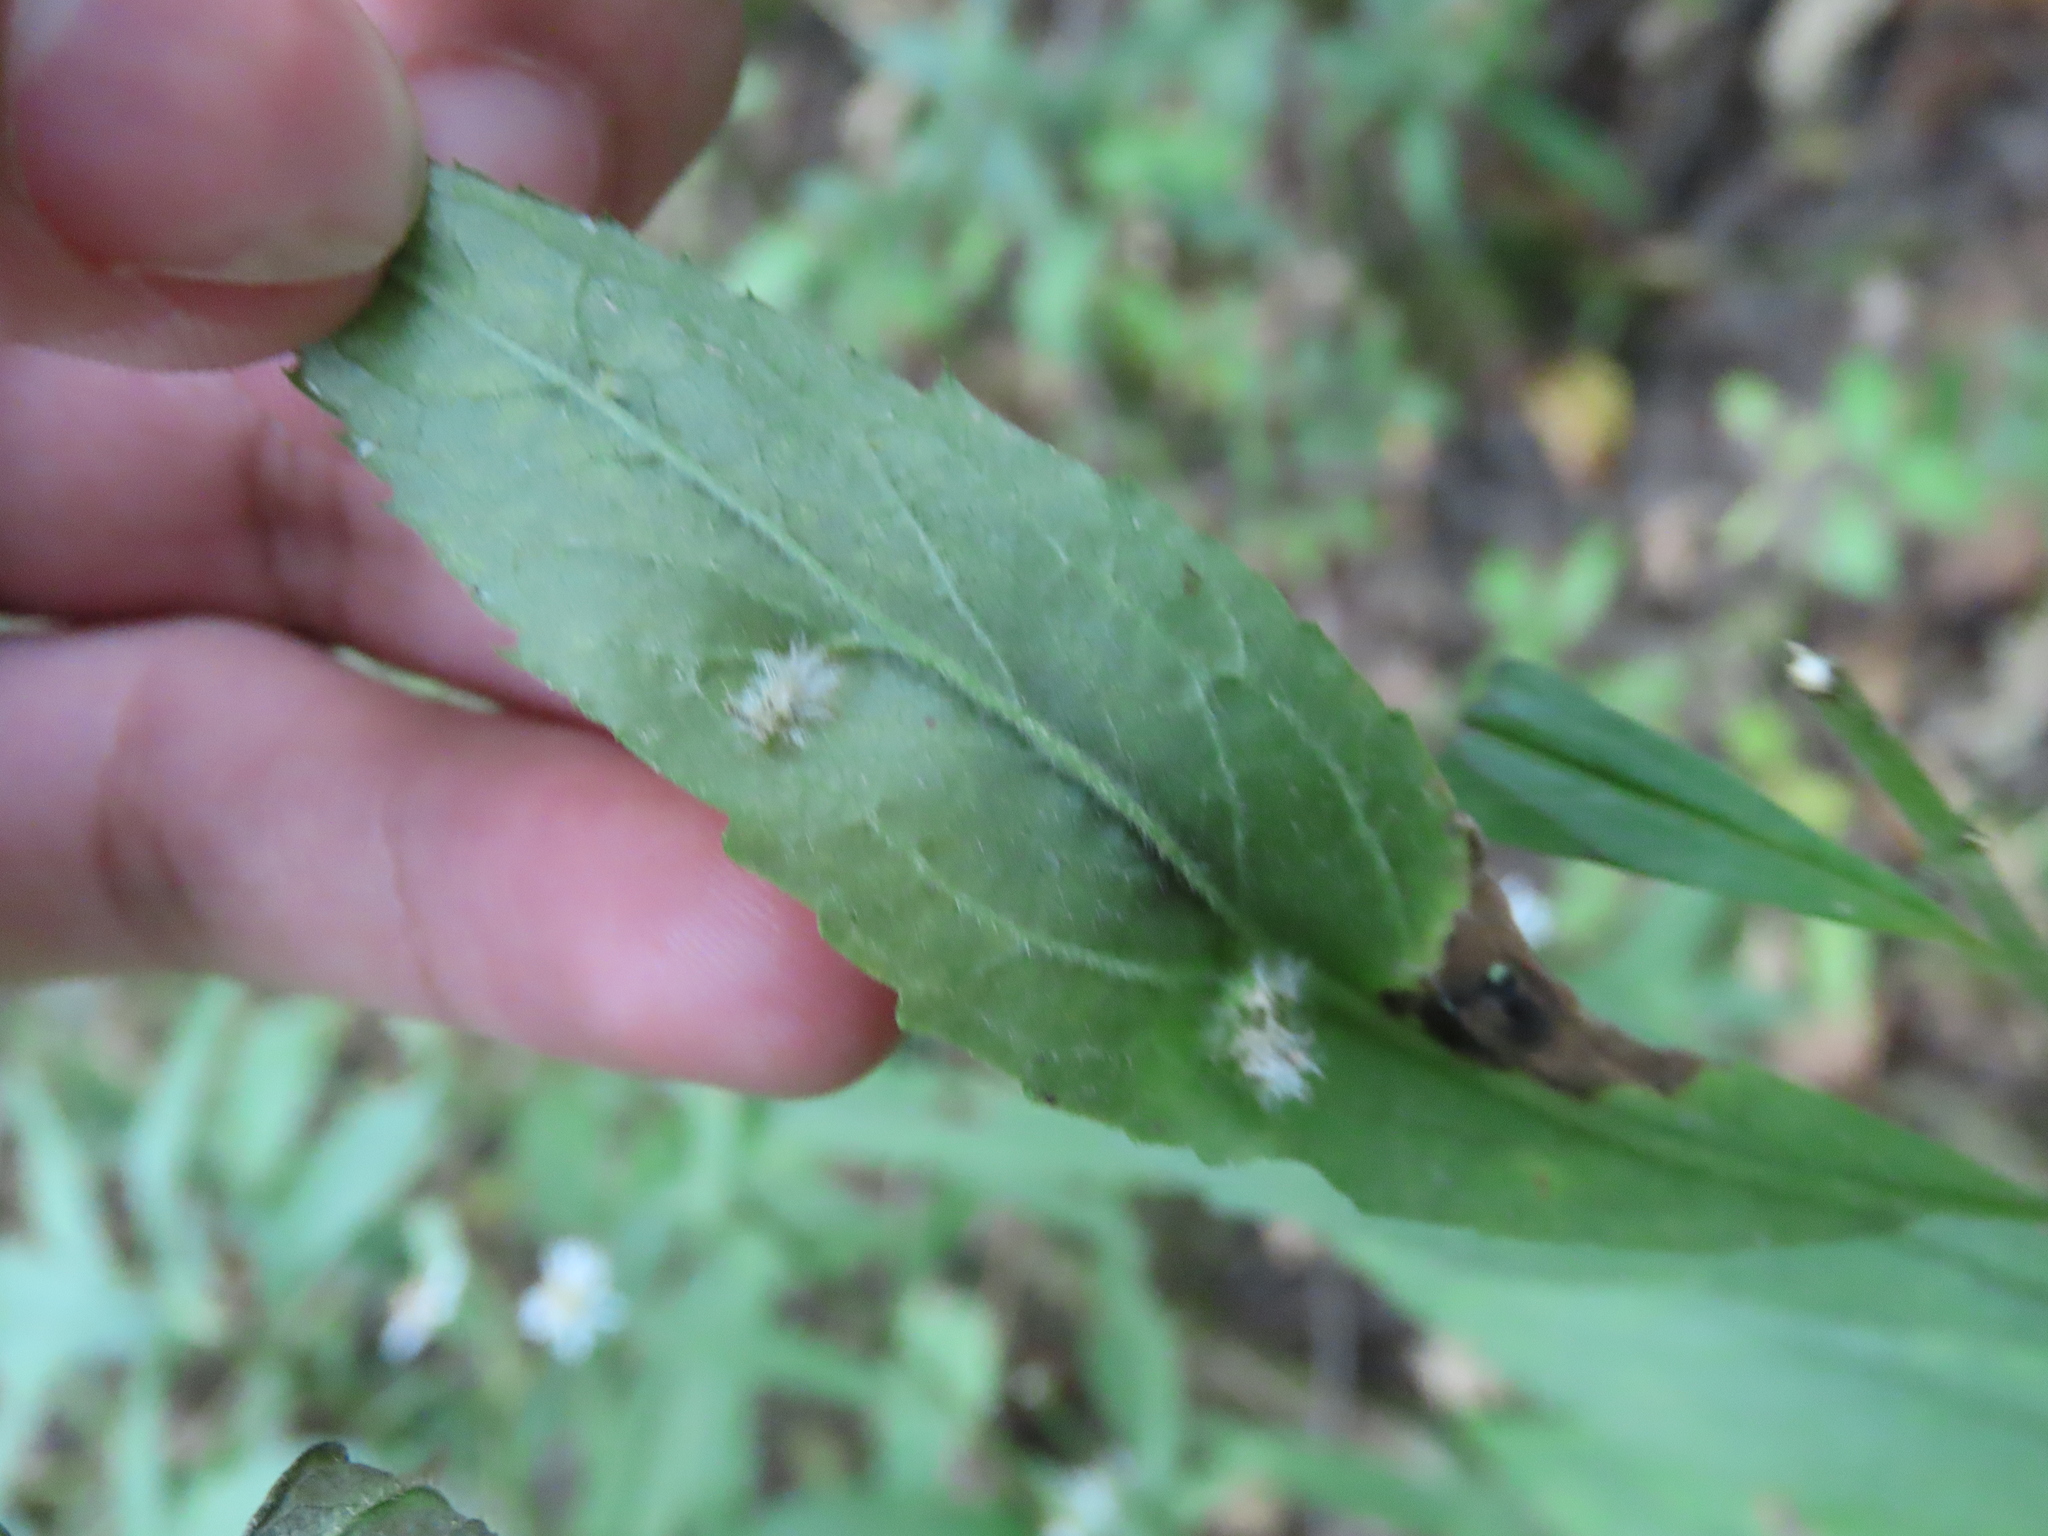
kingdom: Animalia
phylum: Arthropoda
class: Insecta
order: Diptera
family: Cecidomyiidae
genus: Rhopalomyia
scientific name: Rhopalomyia clarkei
